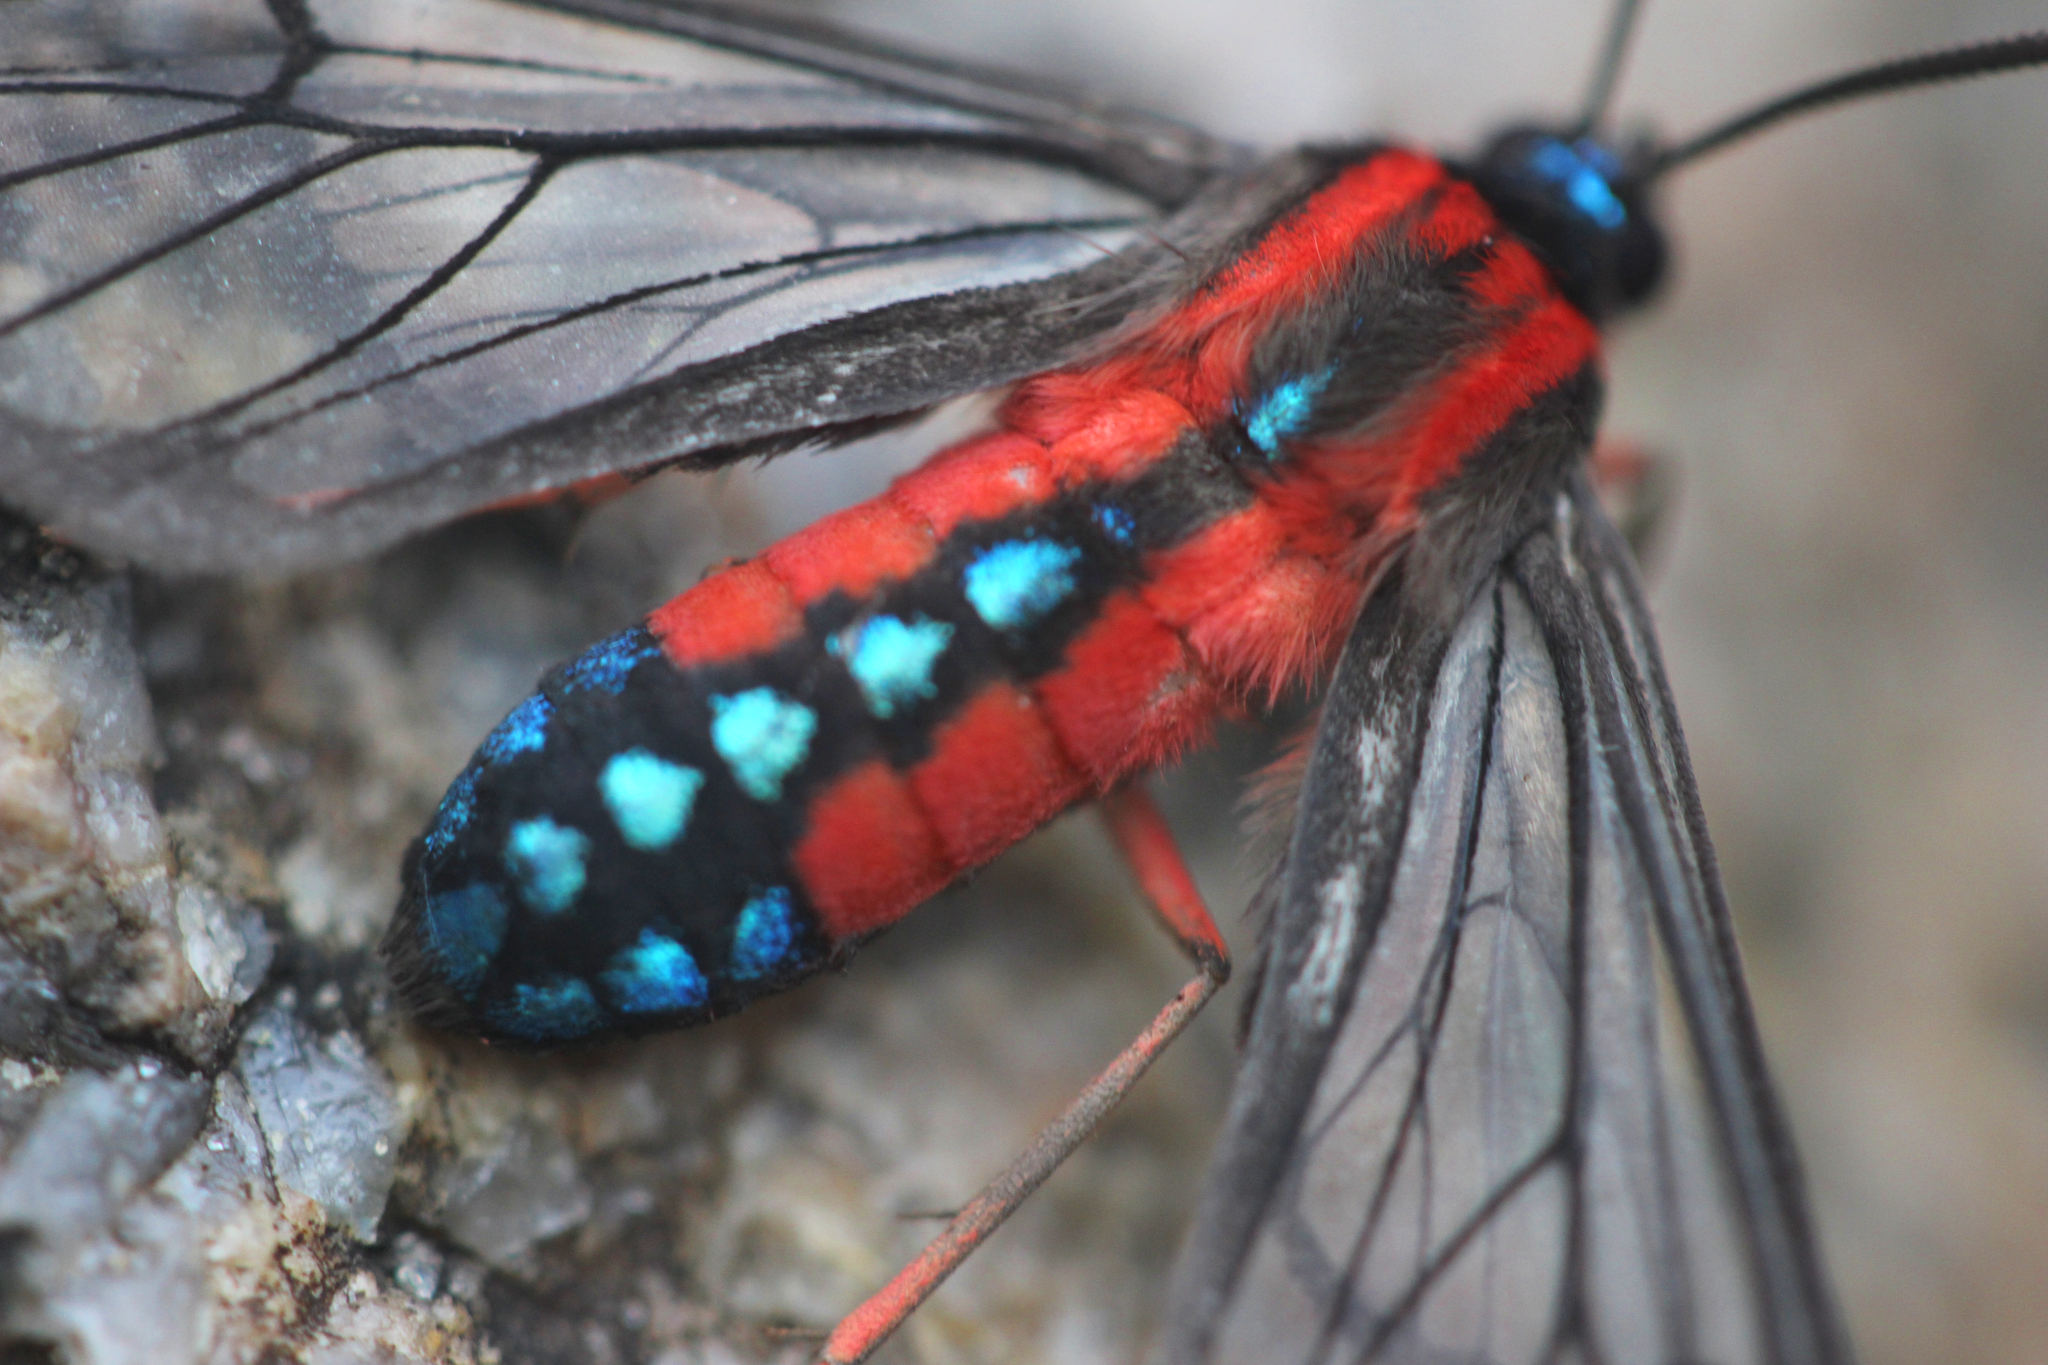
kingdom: Animalia
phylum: Arthropoda
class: Insecta
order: Lepidoptera
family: Erebidae
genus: Cosmosoma
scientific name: Cosmosoma auge
